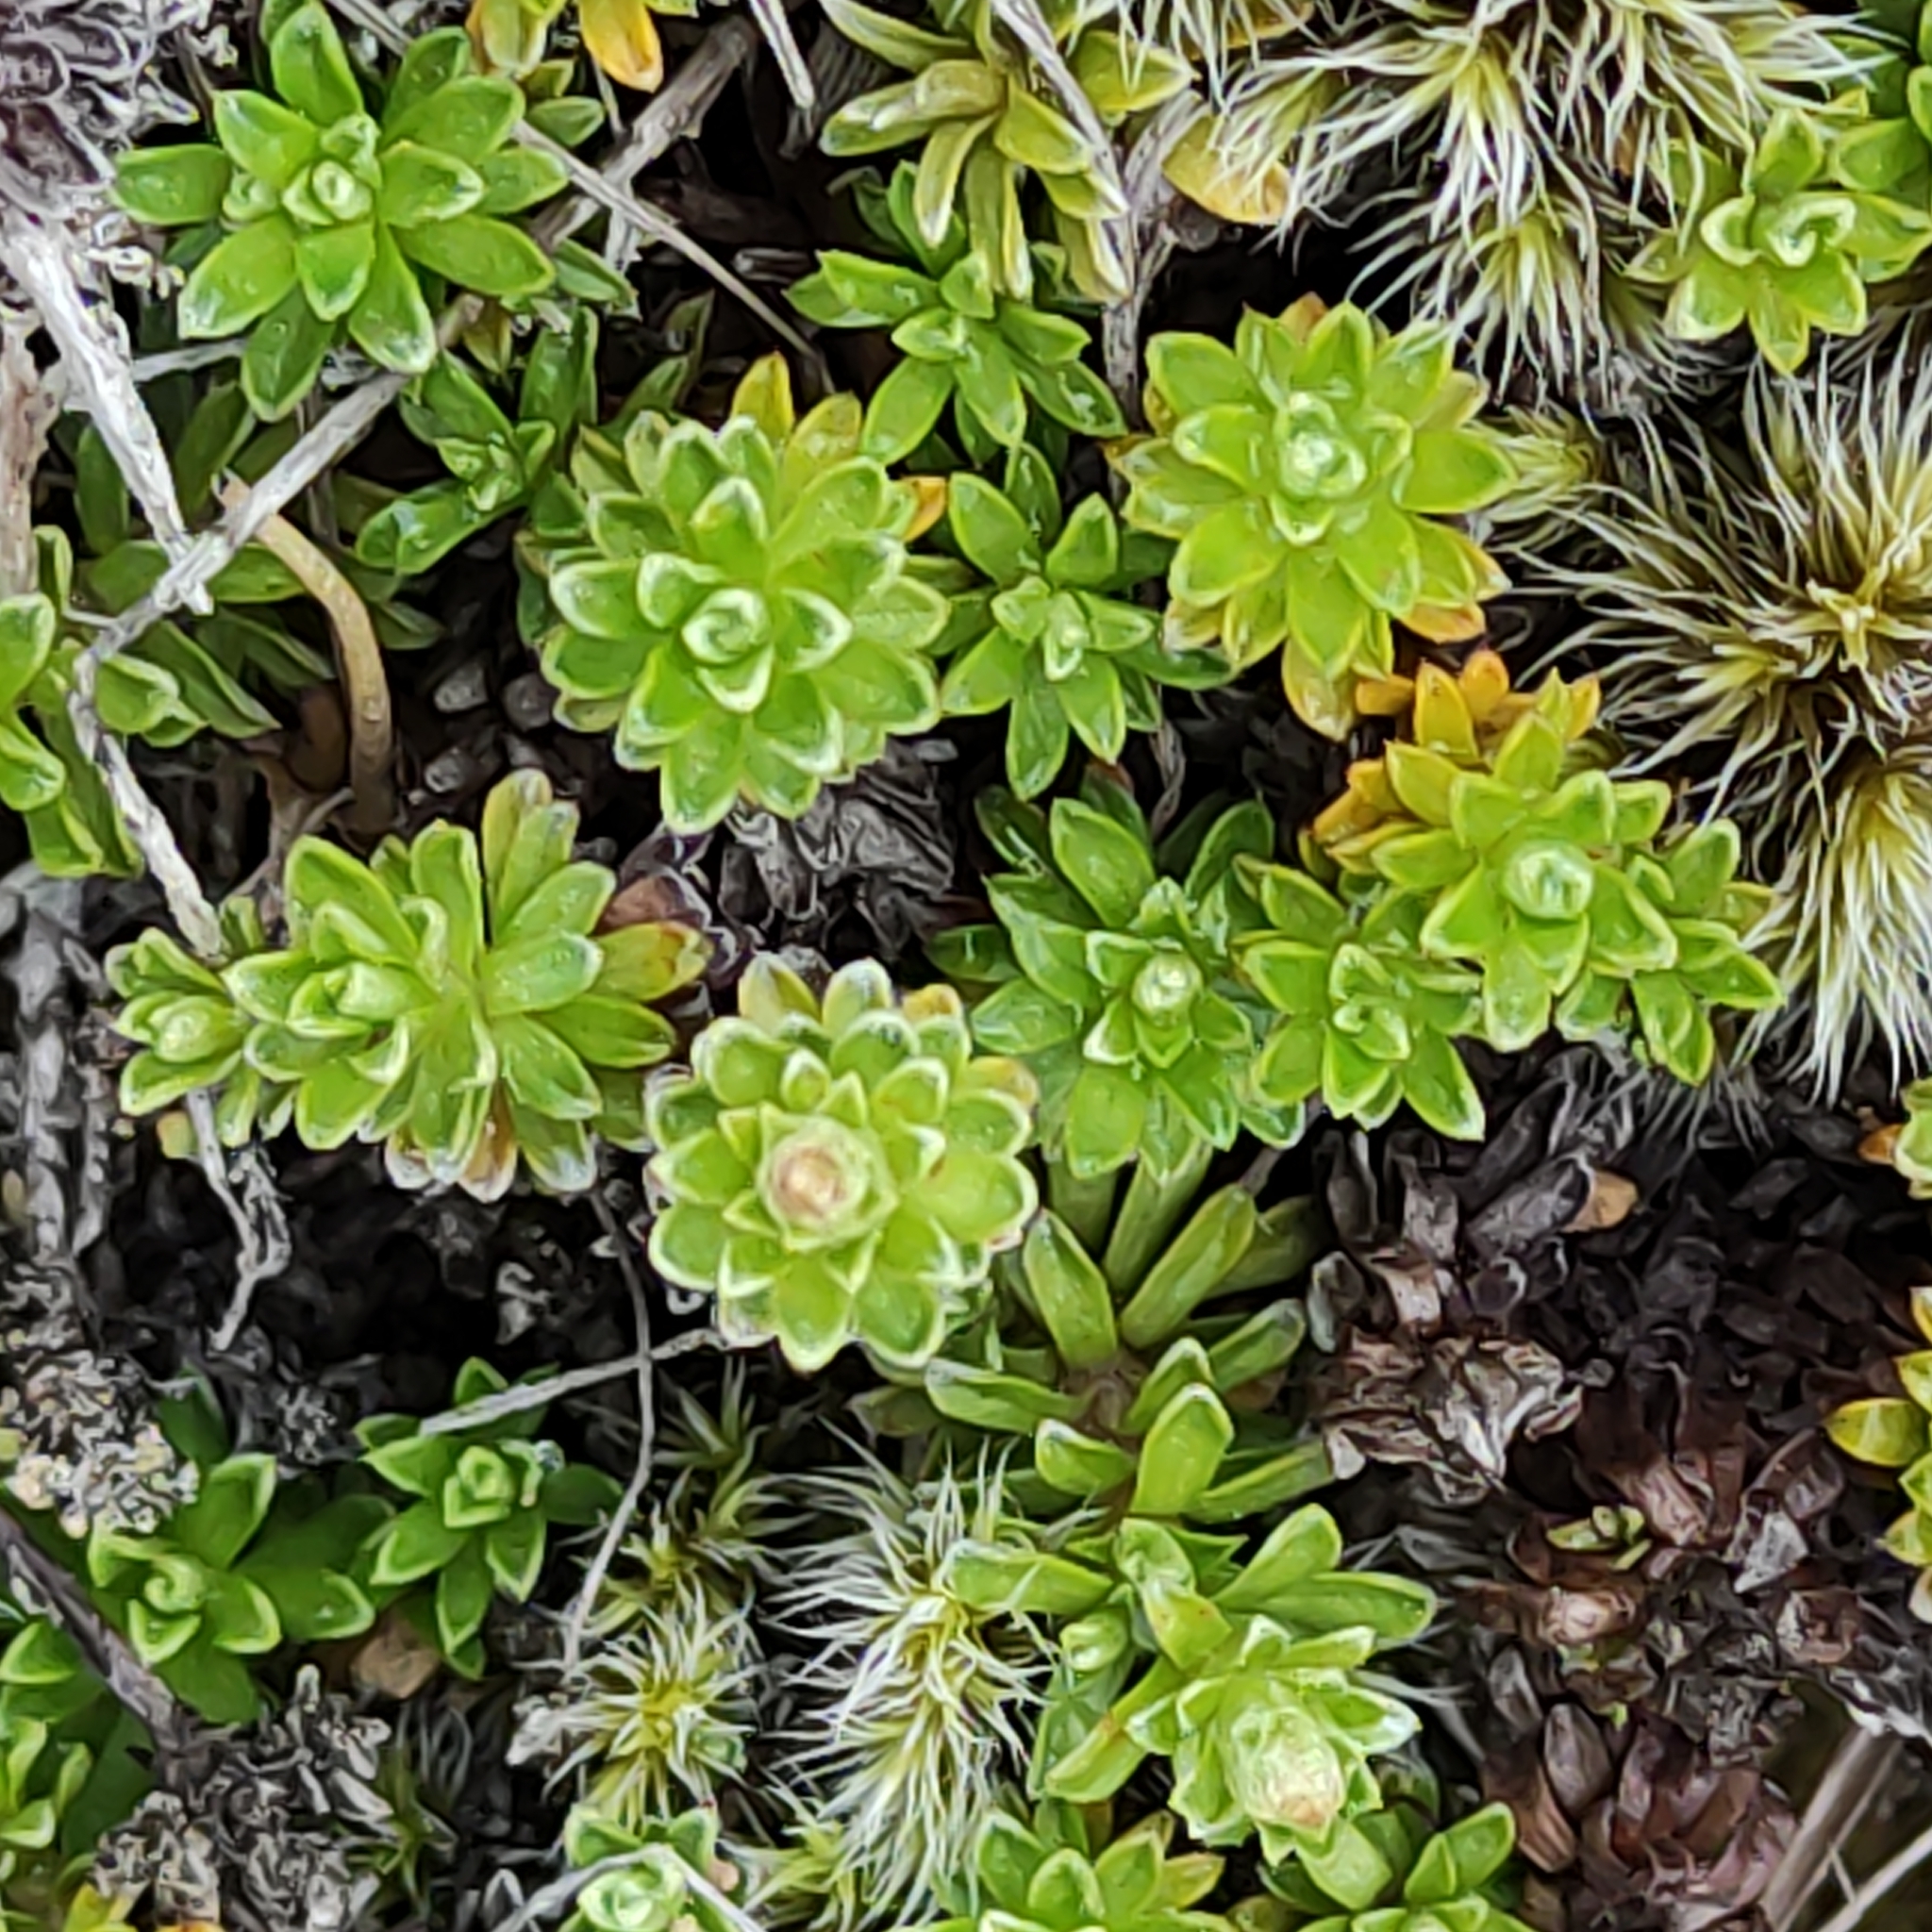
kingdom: Plantae
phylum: Tracheophyta
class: Magnoliopsida
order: Asterales
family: Asteraceae
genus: Raoulia
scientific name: Raoulia subsericea
